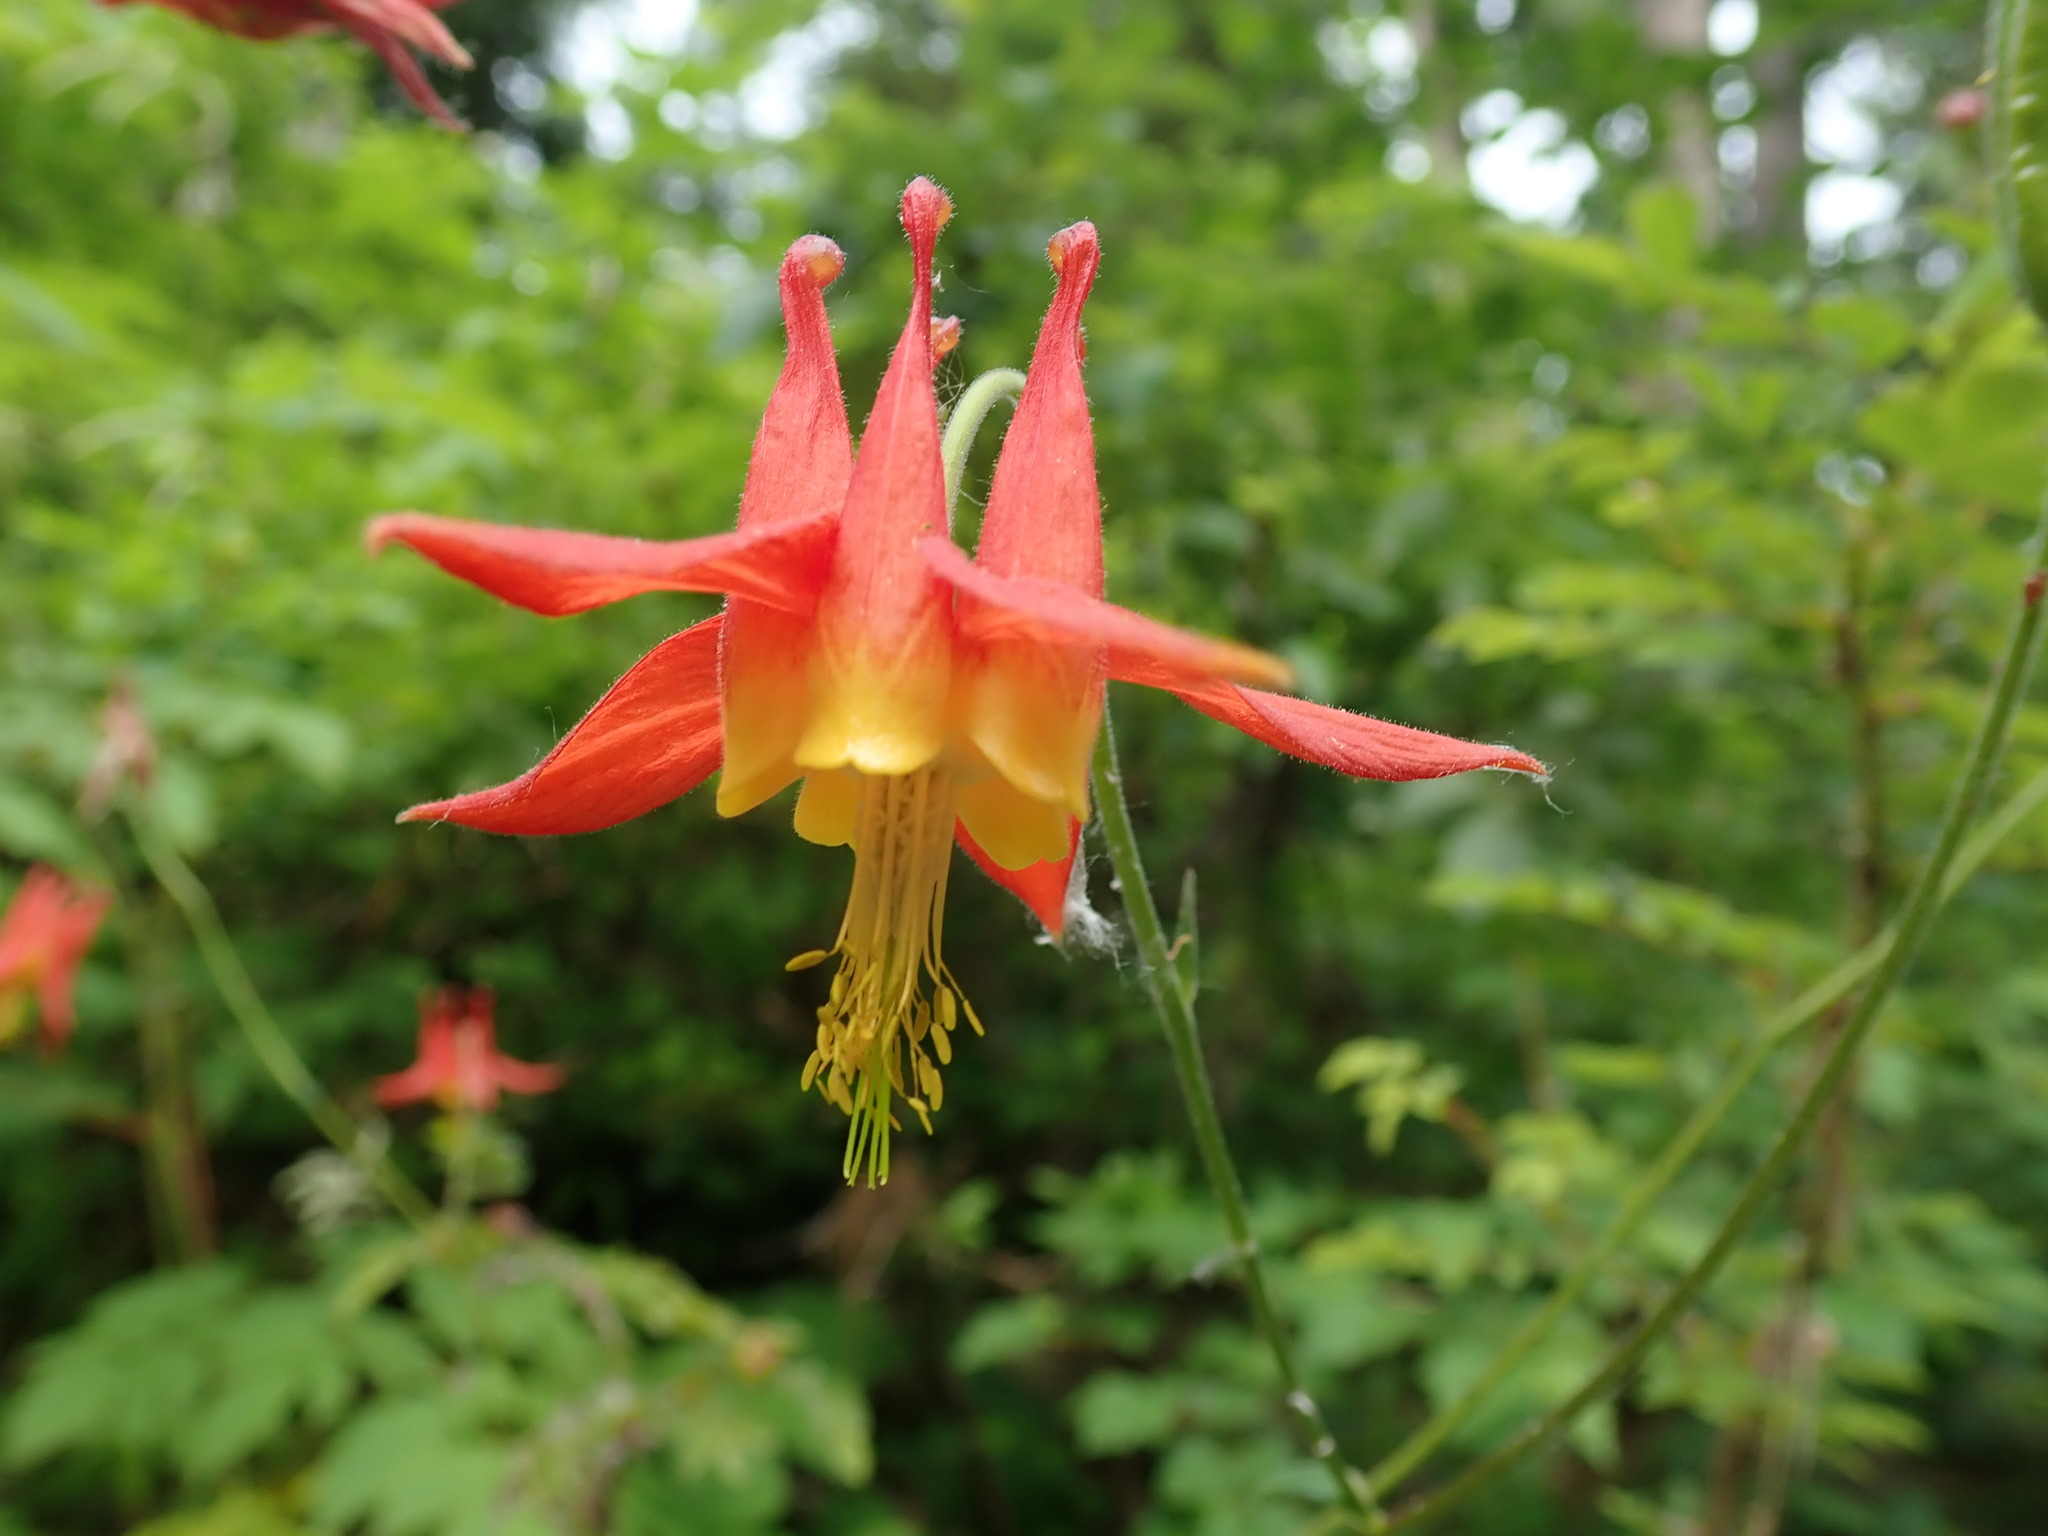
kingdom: Plantae
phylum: Tracheophyta
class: Magnoliopsida
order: Ranunculales
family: Ranunculaceae
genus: Aquilegia
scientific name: Aquilegia formosa
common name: Sitka columbine
